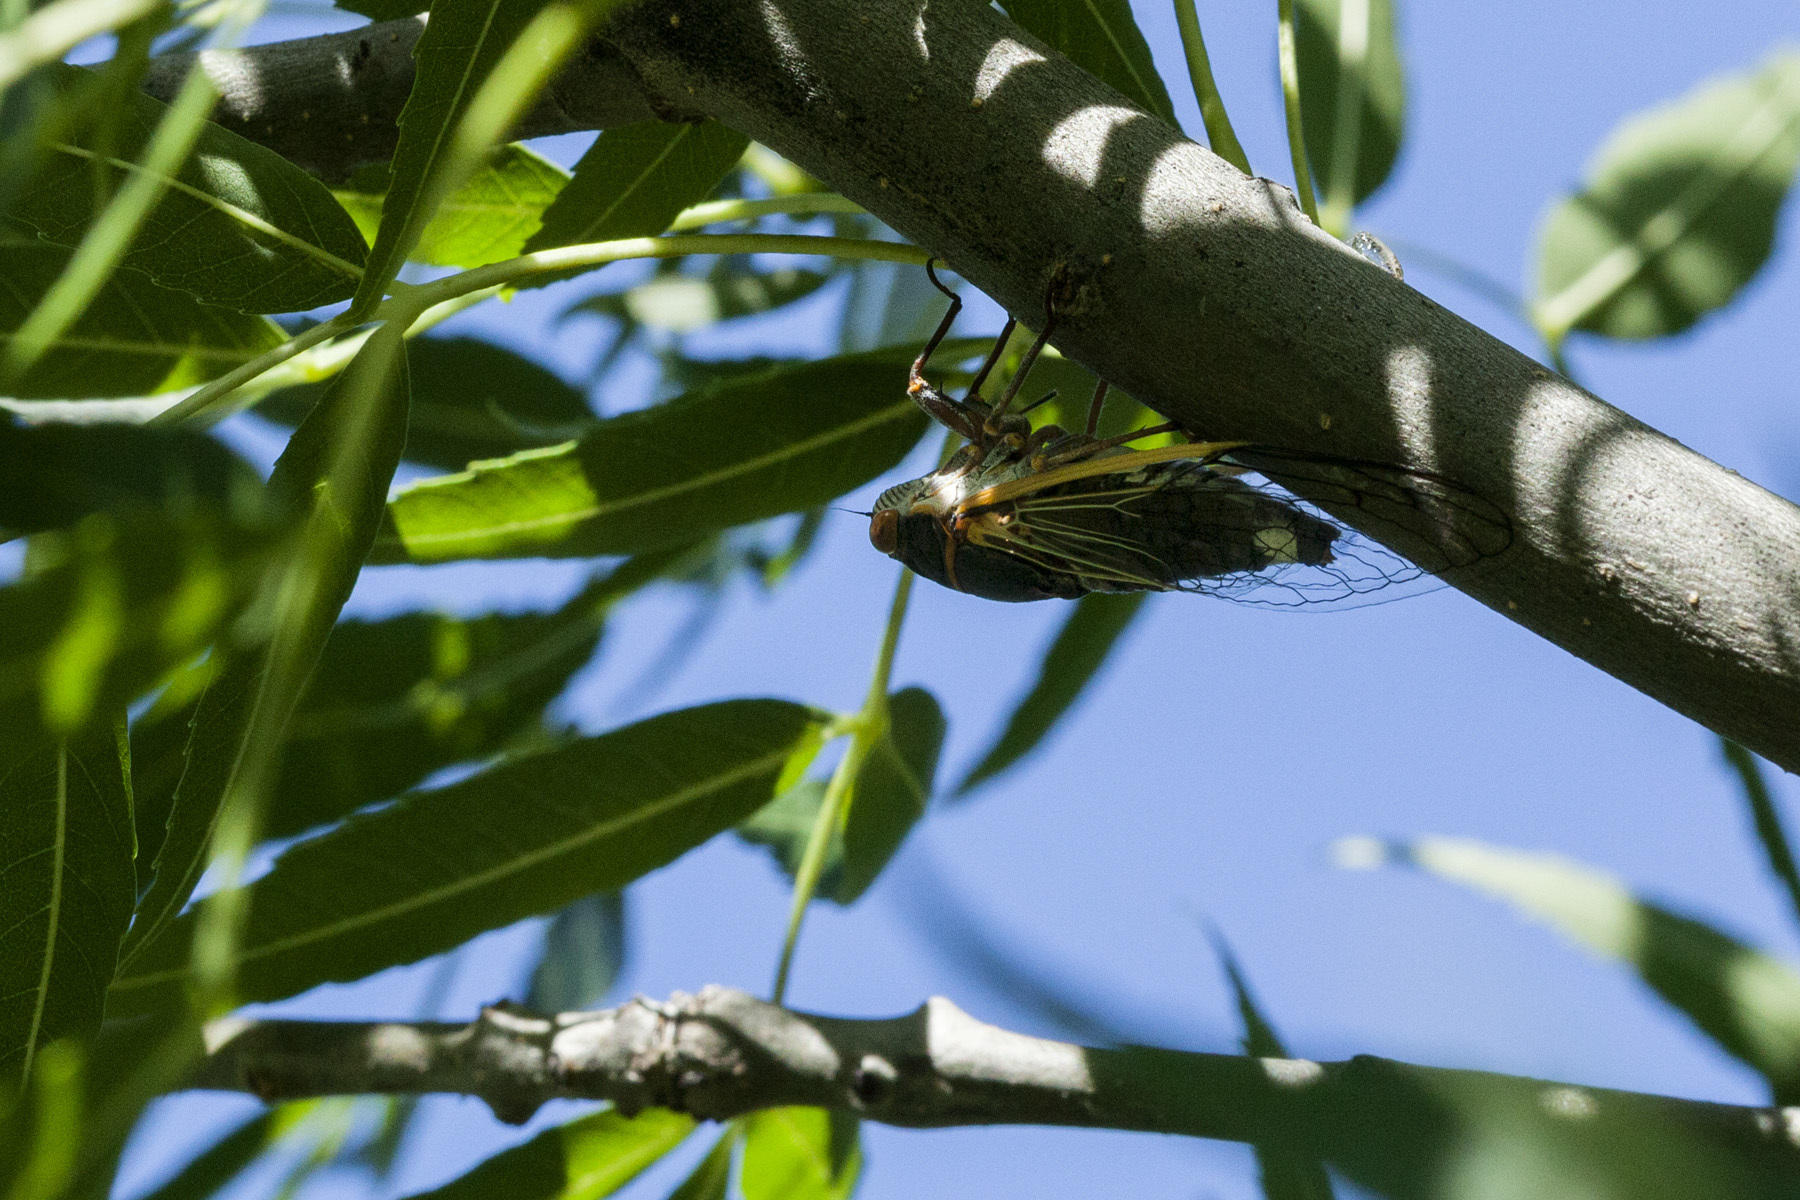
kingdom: Animalia
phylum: Arthropoda
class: Insecta
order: Hemiptera
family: Cicadidae
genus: Diceroprocta
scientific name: Diceroprocta cinctifera
